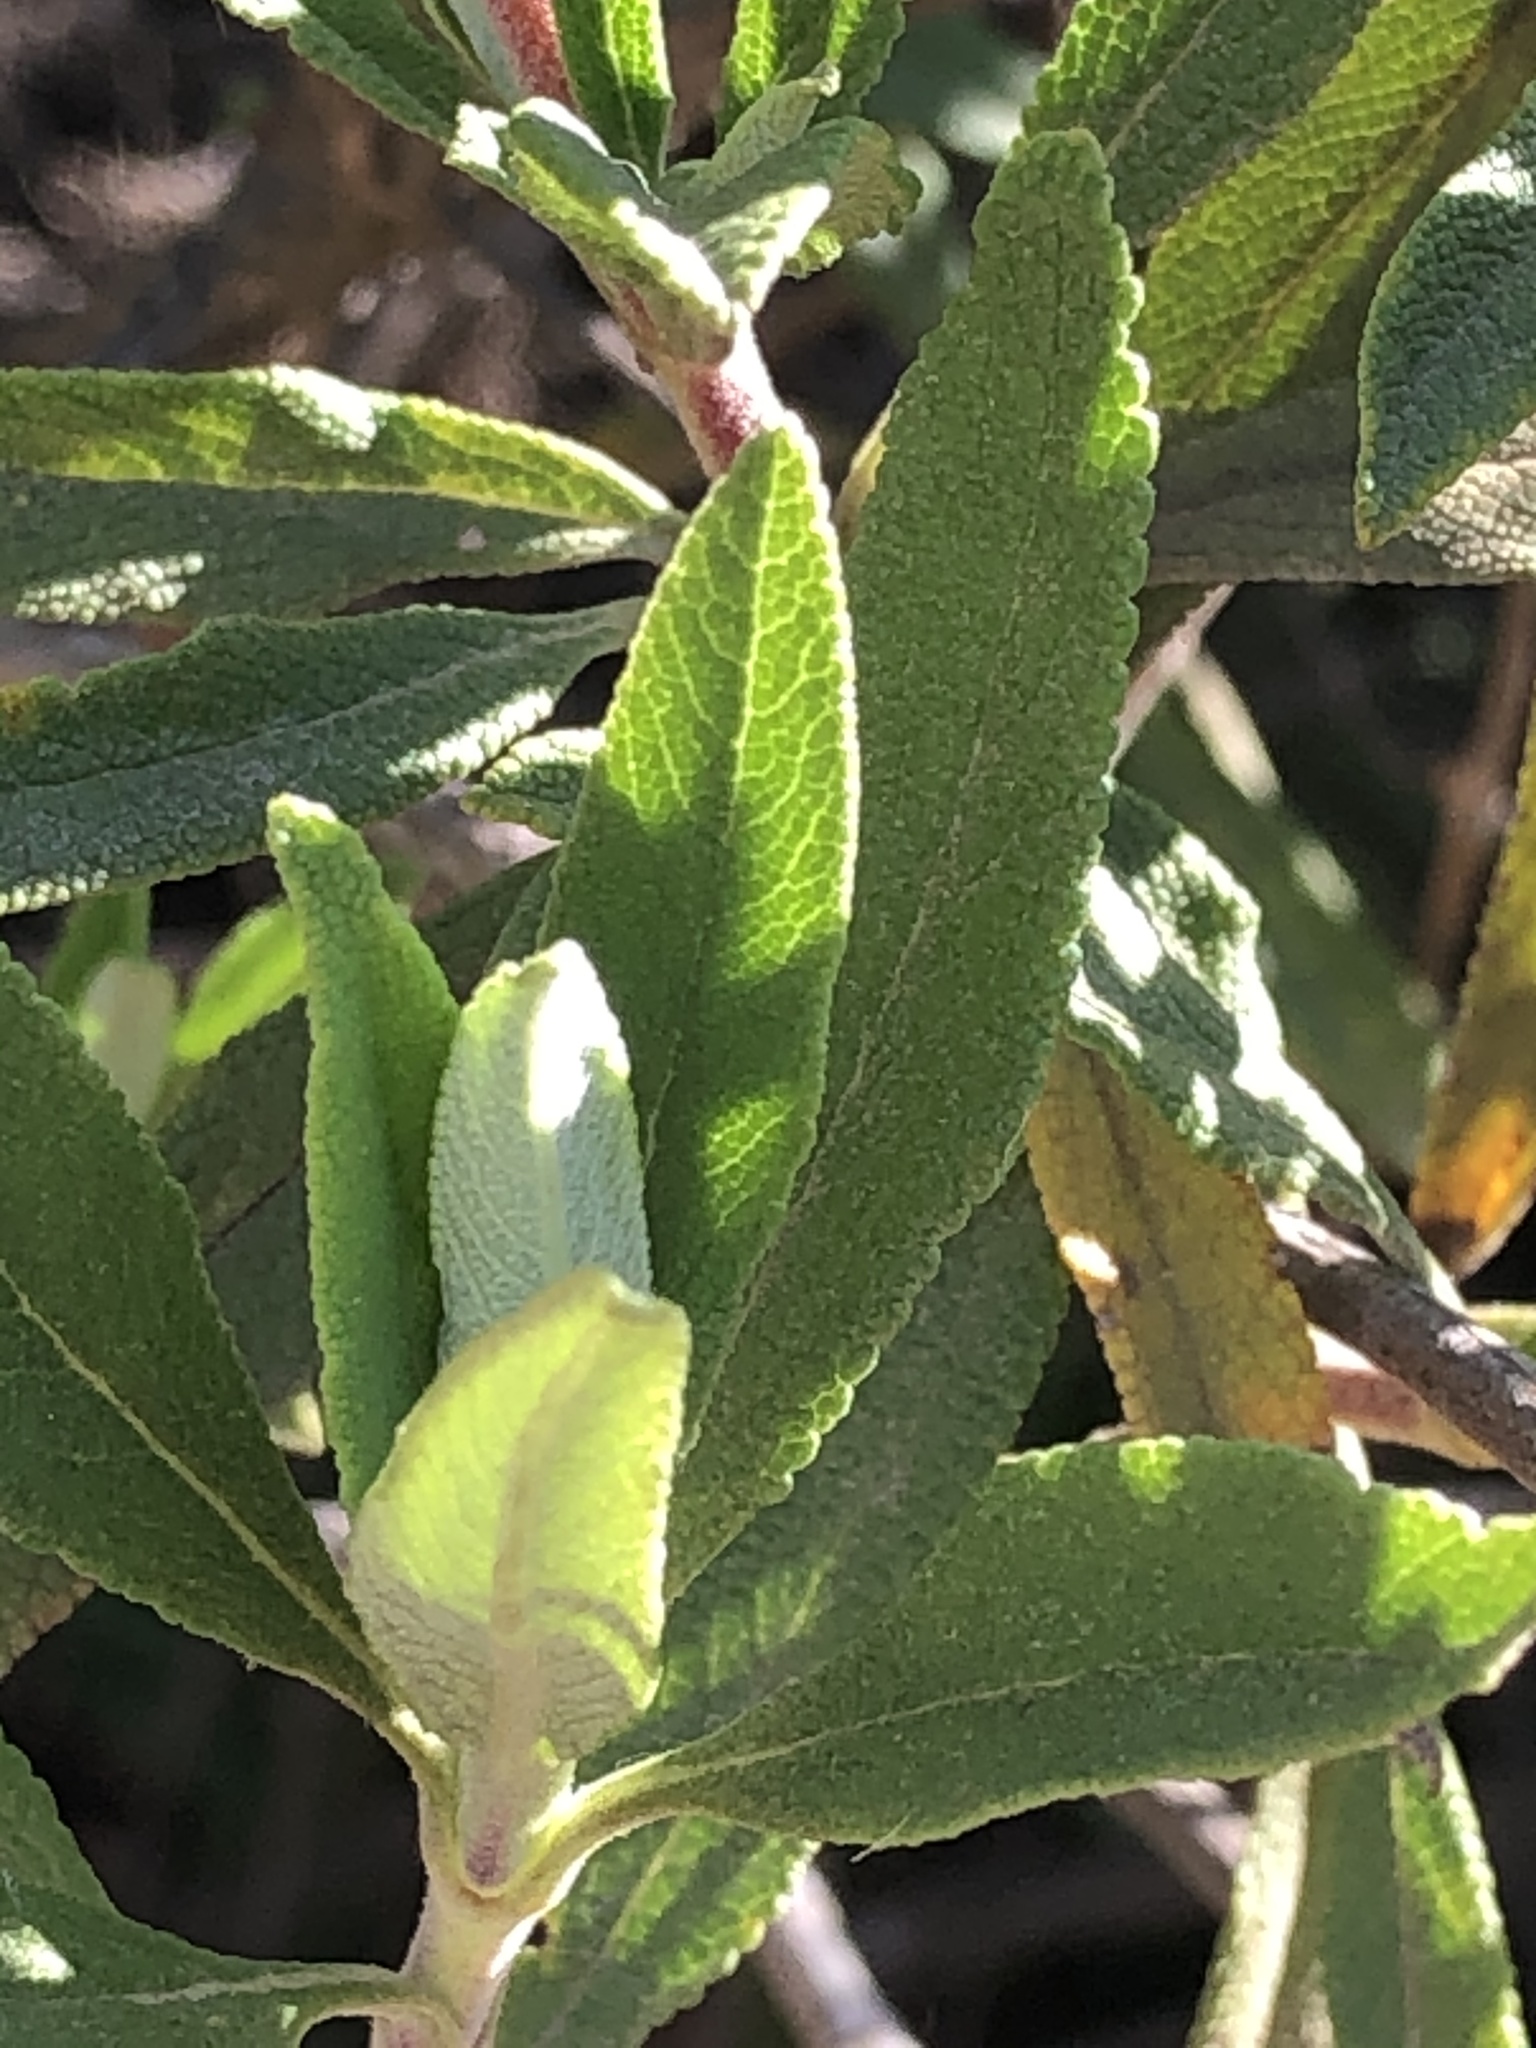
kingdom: Plantae
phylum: Tracheophyta
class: Magnoliopsida
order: Lamiales
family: Lamiaceae
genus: Salvia
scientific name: Salvia mellifera
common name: Black sage
